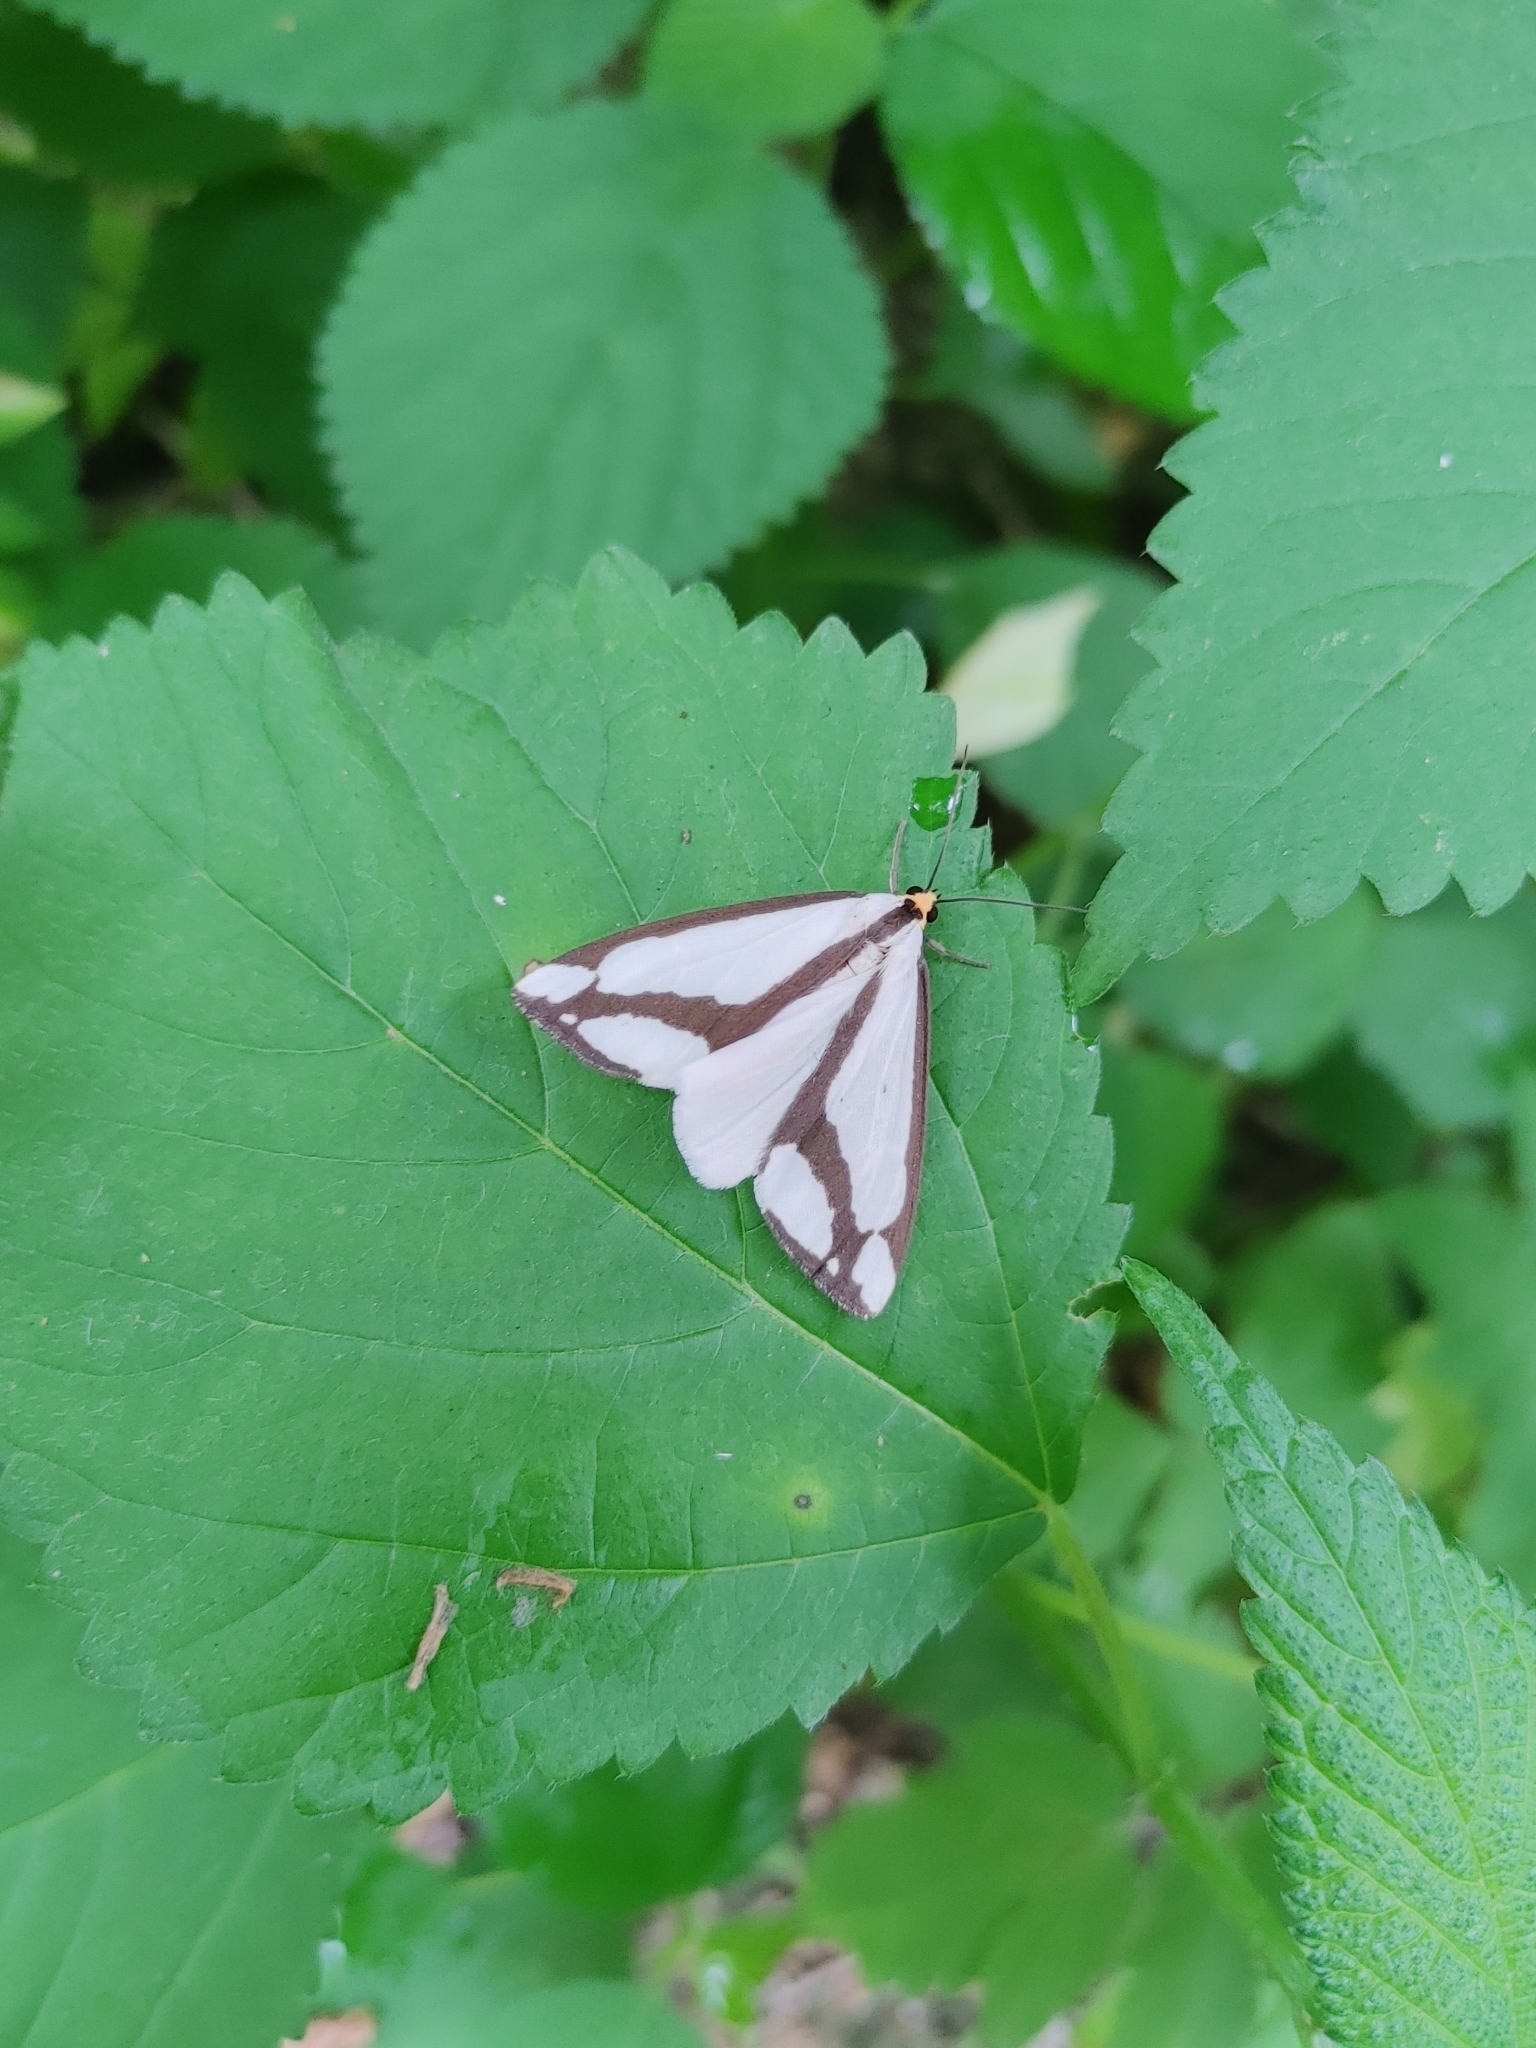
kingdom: Animalia
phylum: Arthropoda
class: Insecta
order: Lepidoptera
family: Erebidae
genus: Haploa
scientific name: Haploa lecontei
